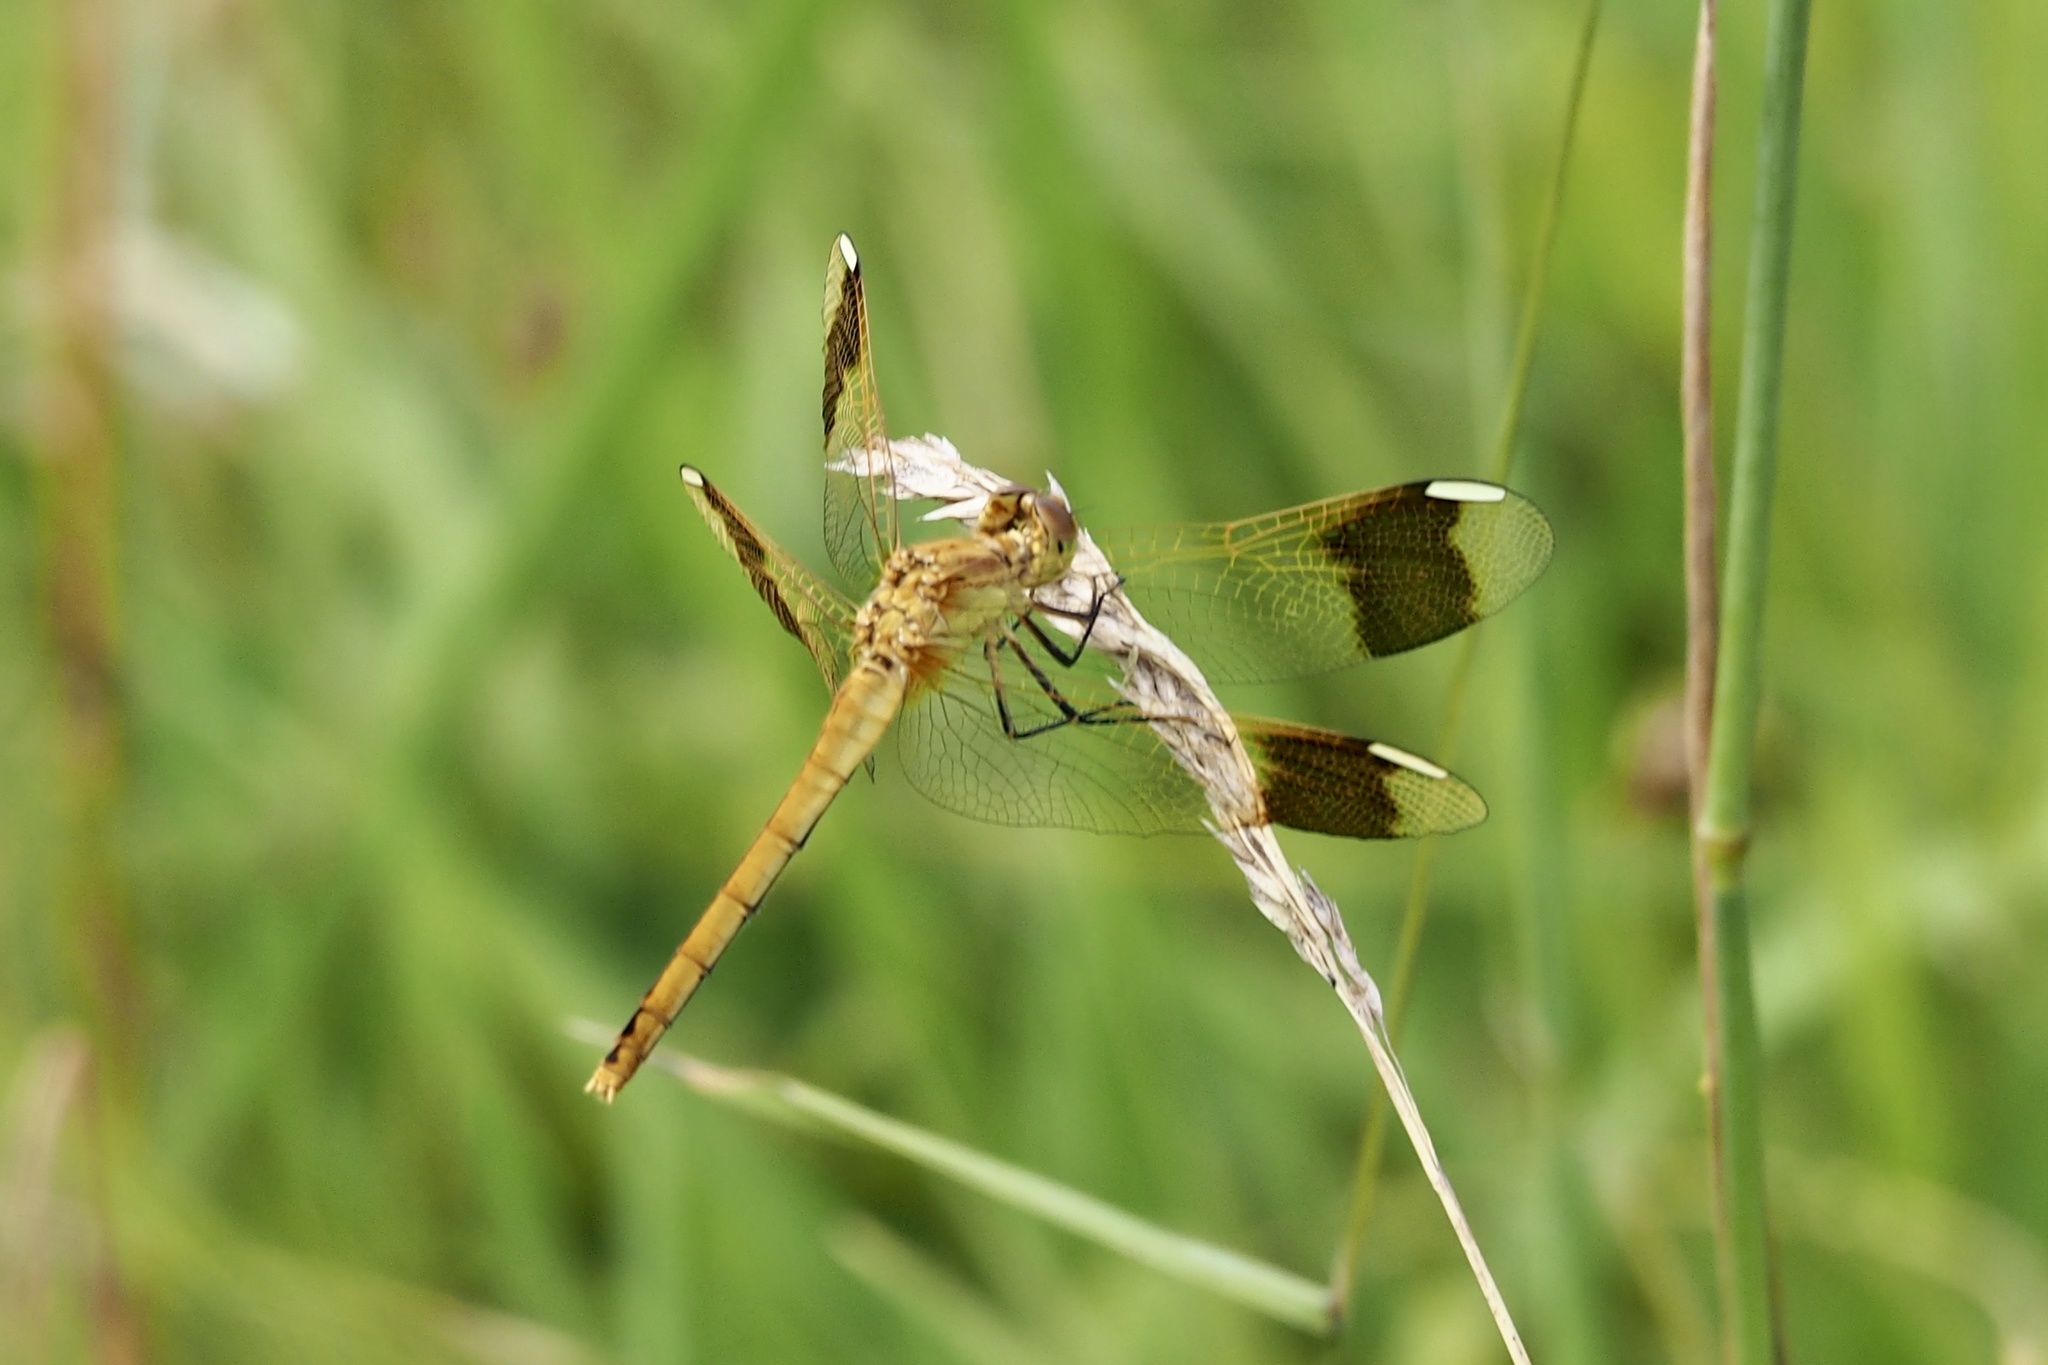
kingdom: Animalia
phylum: Arthropoda
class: Insecta
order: Odonata
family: Libellulidae
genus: Sympetrum
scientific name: Sympetrum pedemontanum
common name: Banded darter
